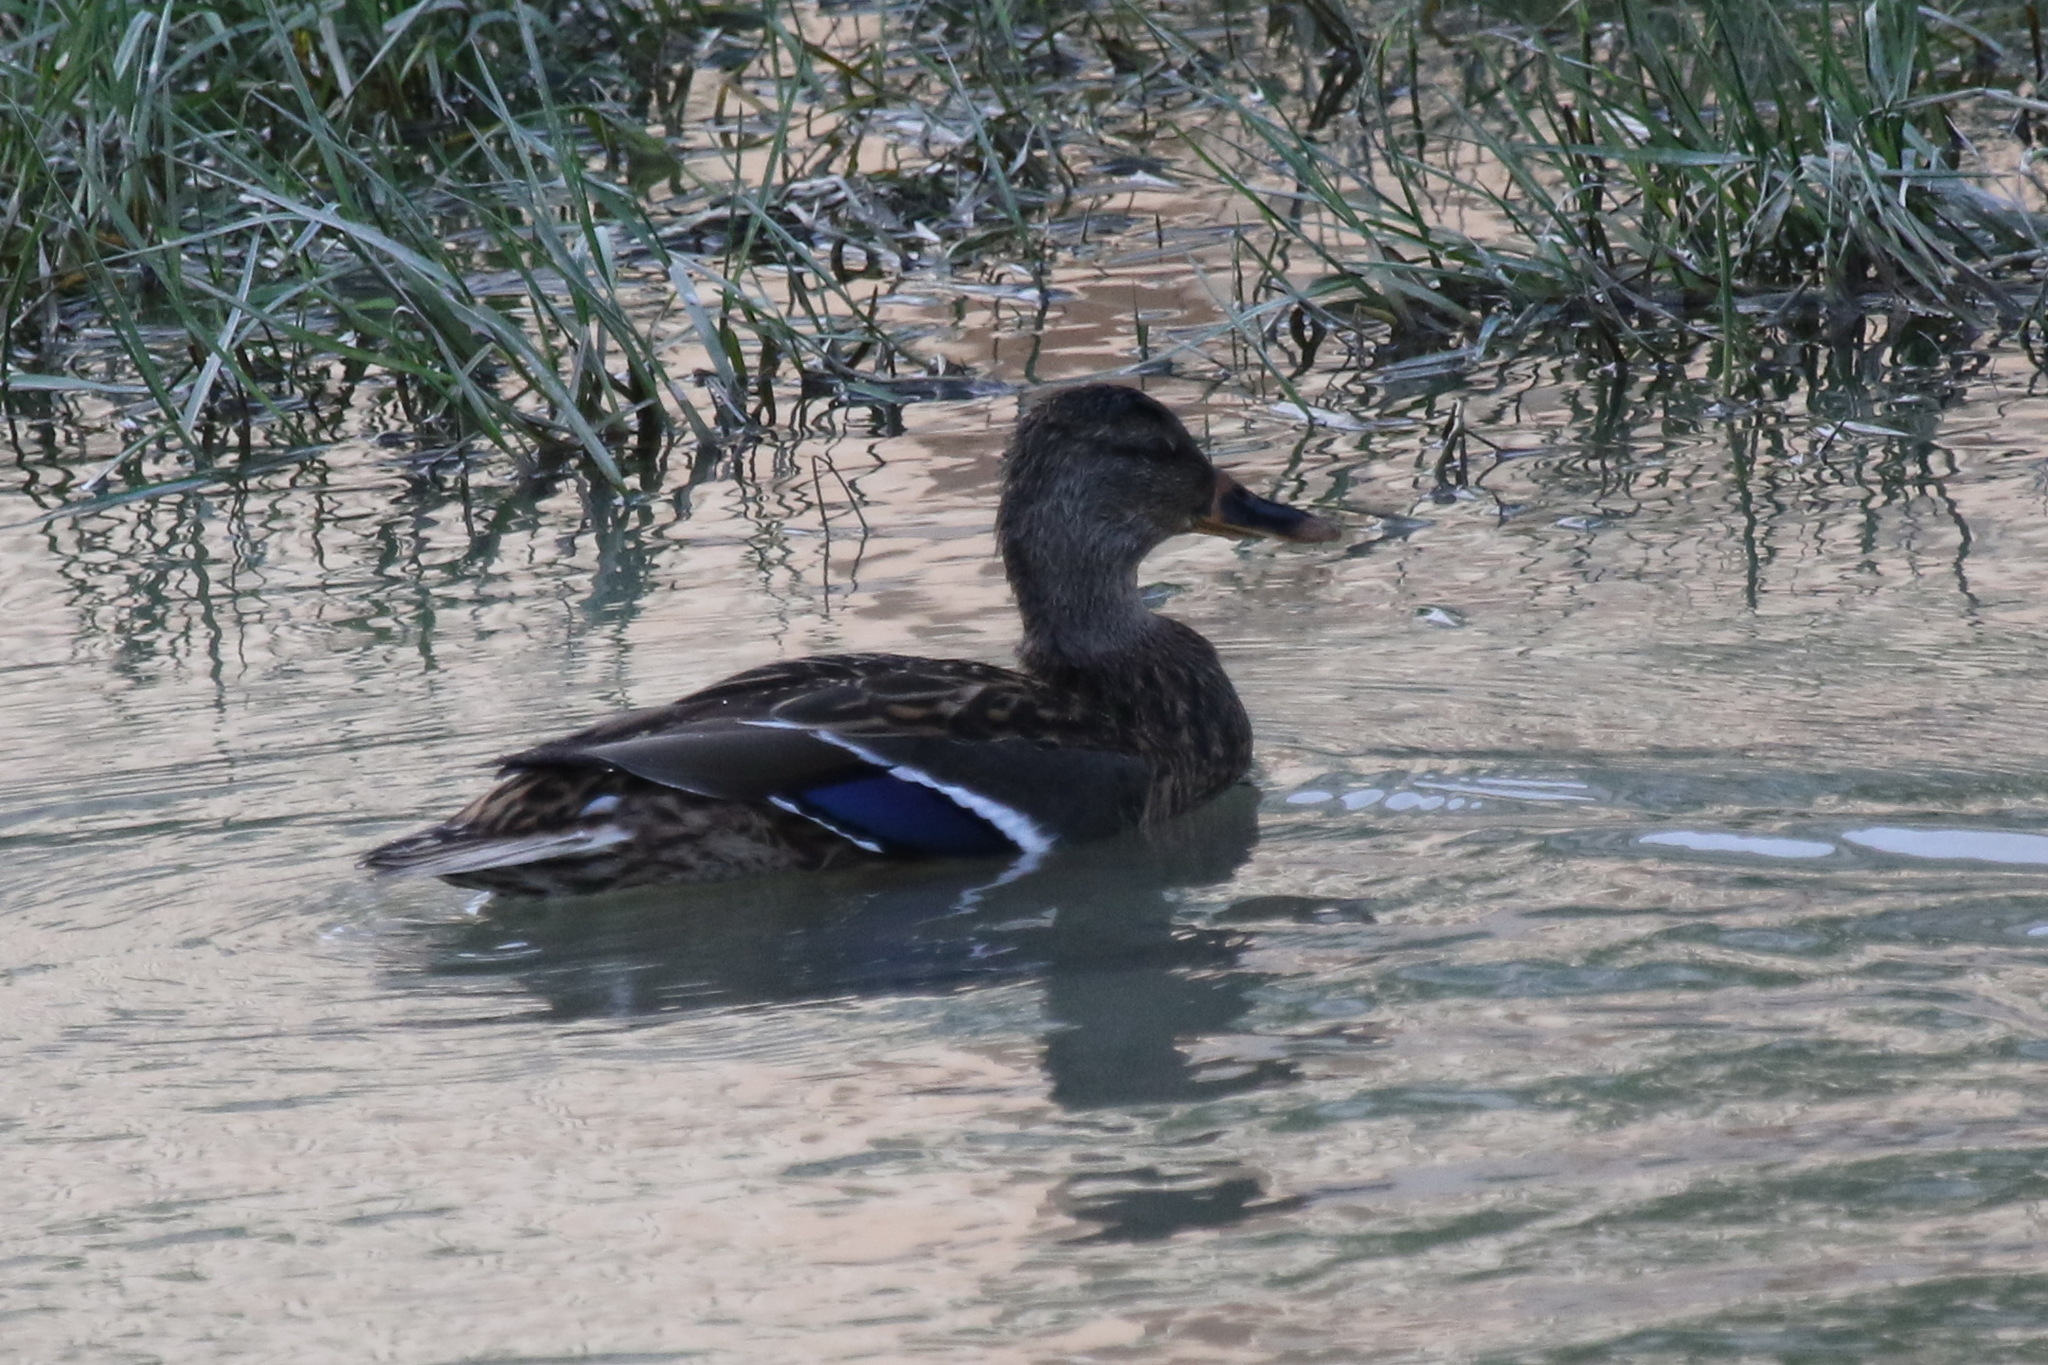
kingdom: Animalia
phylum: Chordata
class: Aves
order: Anseriformes
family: Anatidae
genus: Anas
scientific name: Anas platyrhynchos
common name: Mallard
